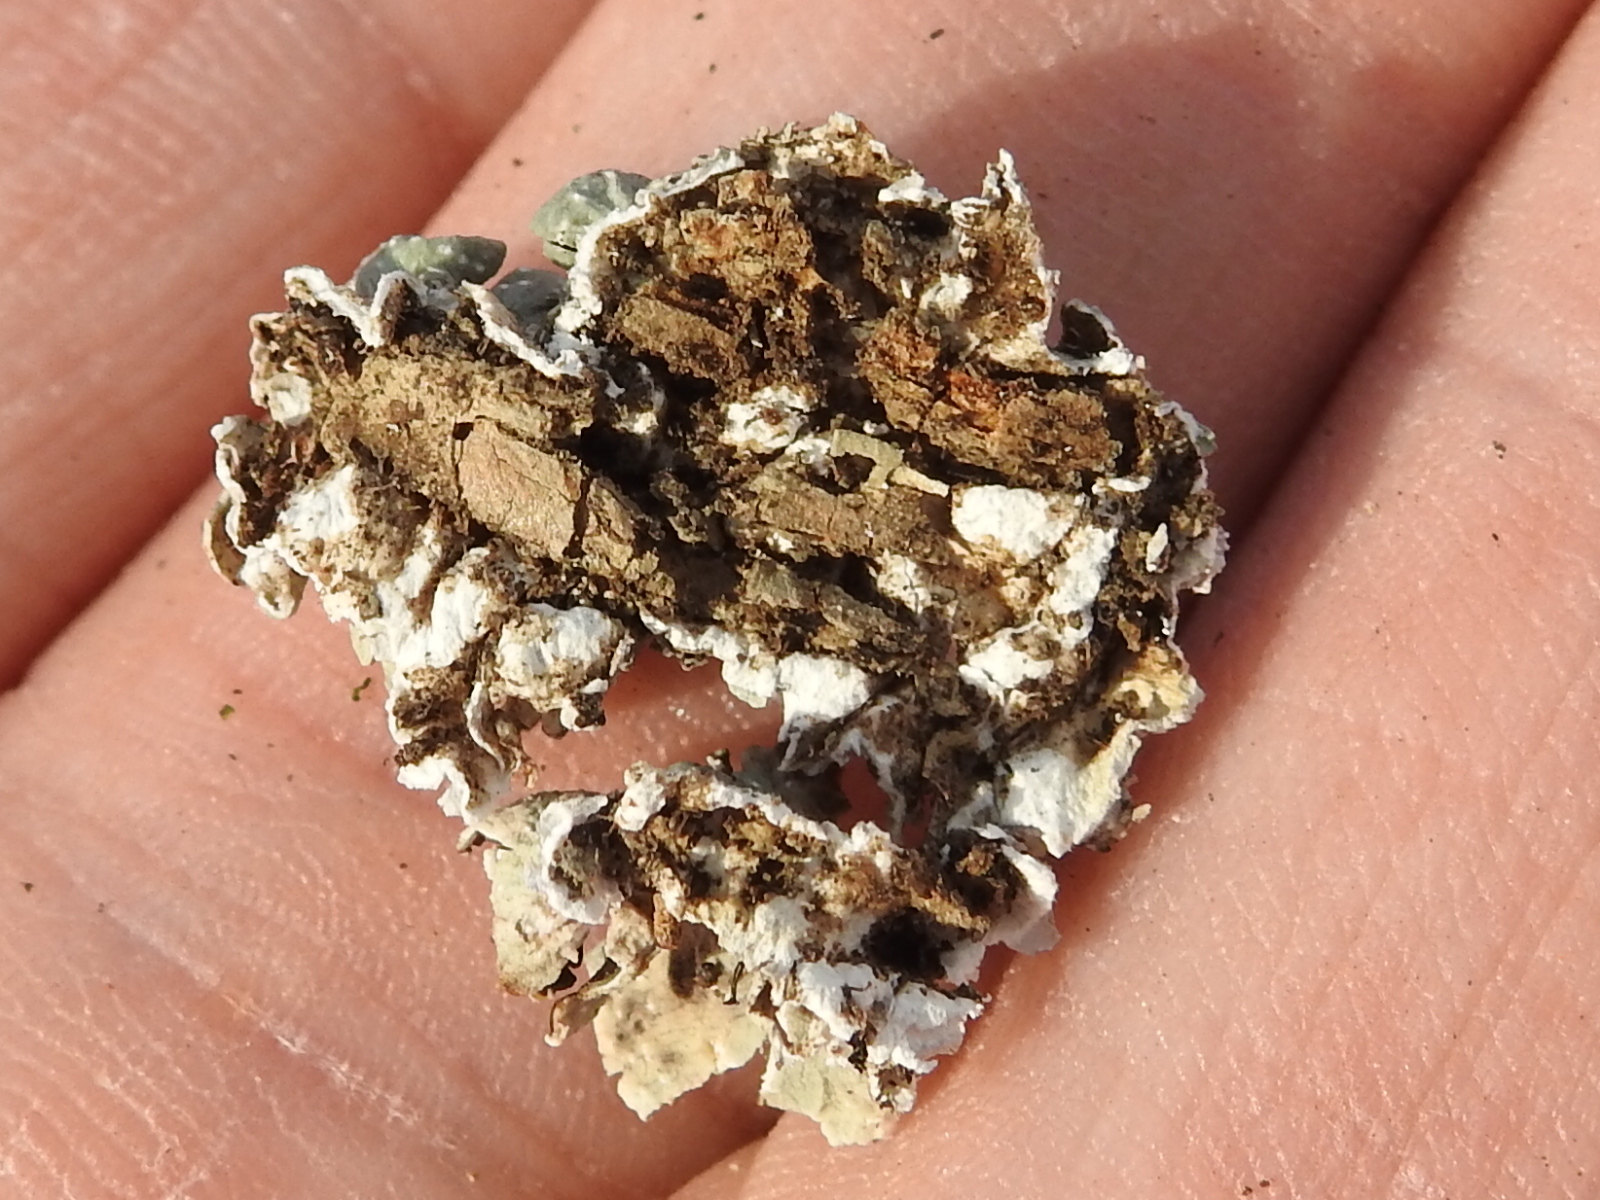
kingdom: Fungi
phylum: Ascomycota
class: Lecanoromycetes
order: Lecanorales
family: Parmeliaceae
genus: Punctelia
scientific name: Punctelia bolliana
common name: Eastern speckled shield lichen
